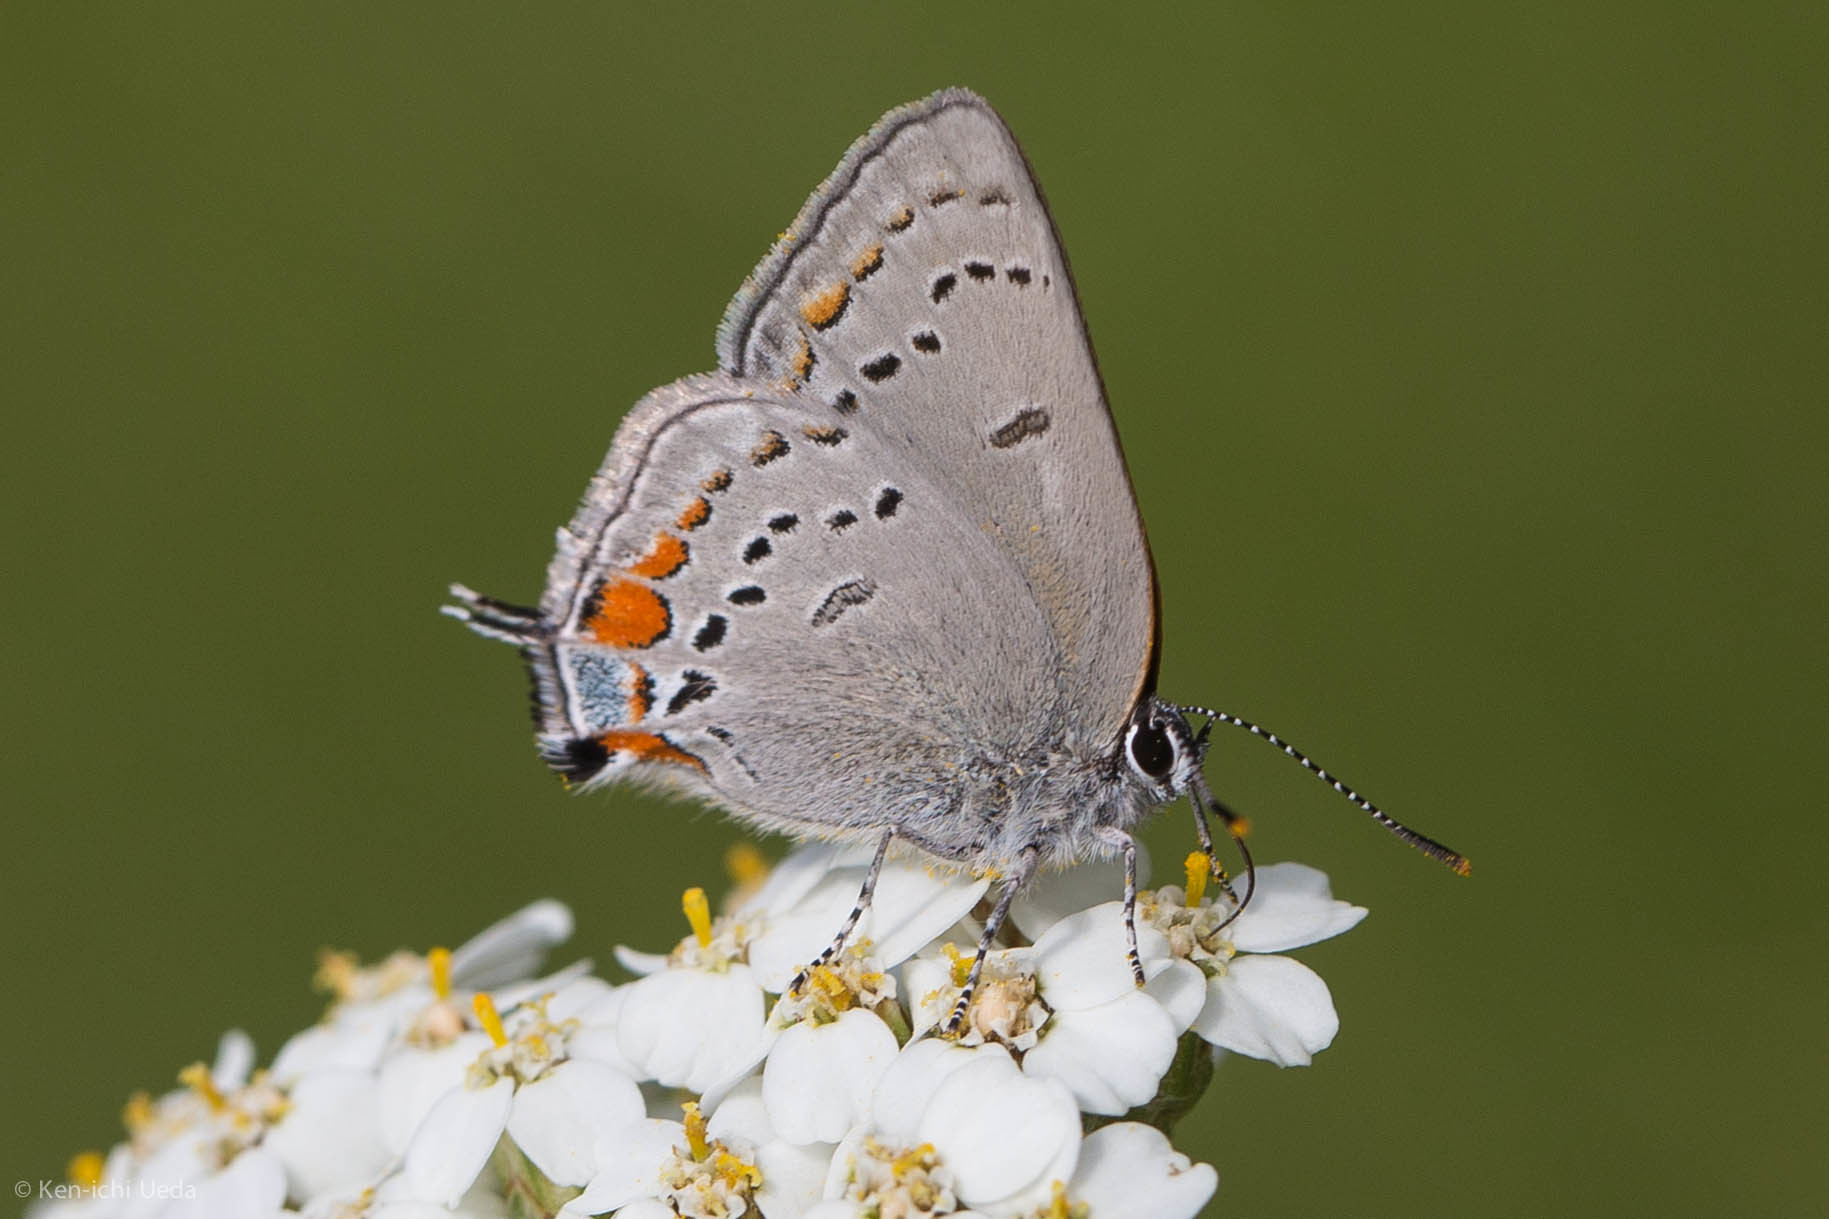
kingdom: Animalia
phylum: Arthropoda
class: Insecta
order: Lepidoptera
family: Lycaenidae
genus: Strymon
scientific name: Strymon acadica
